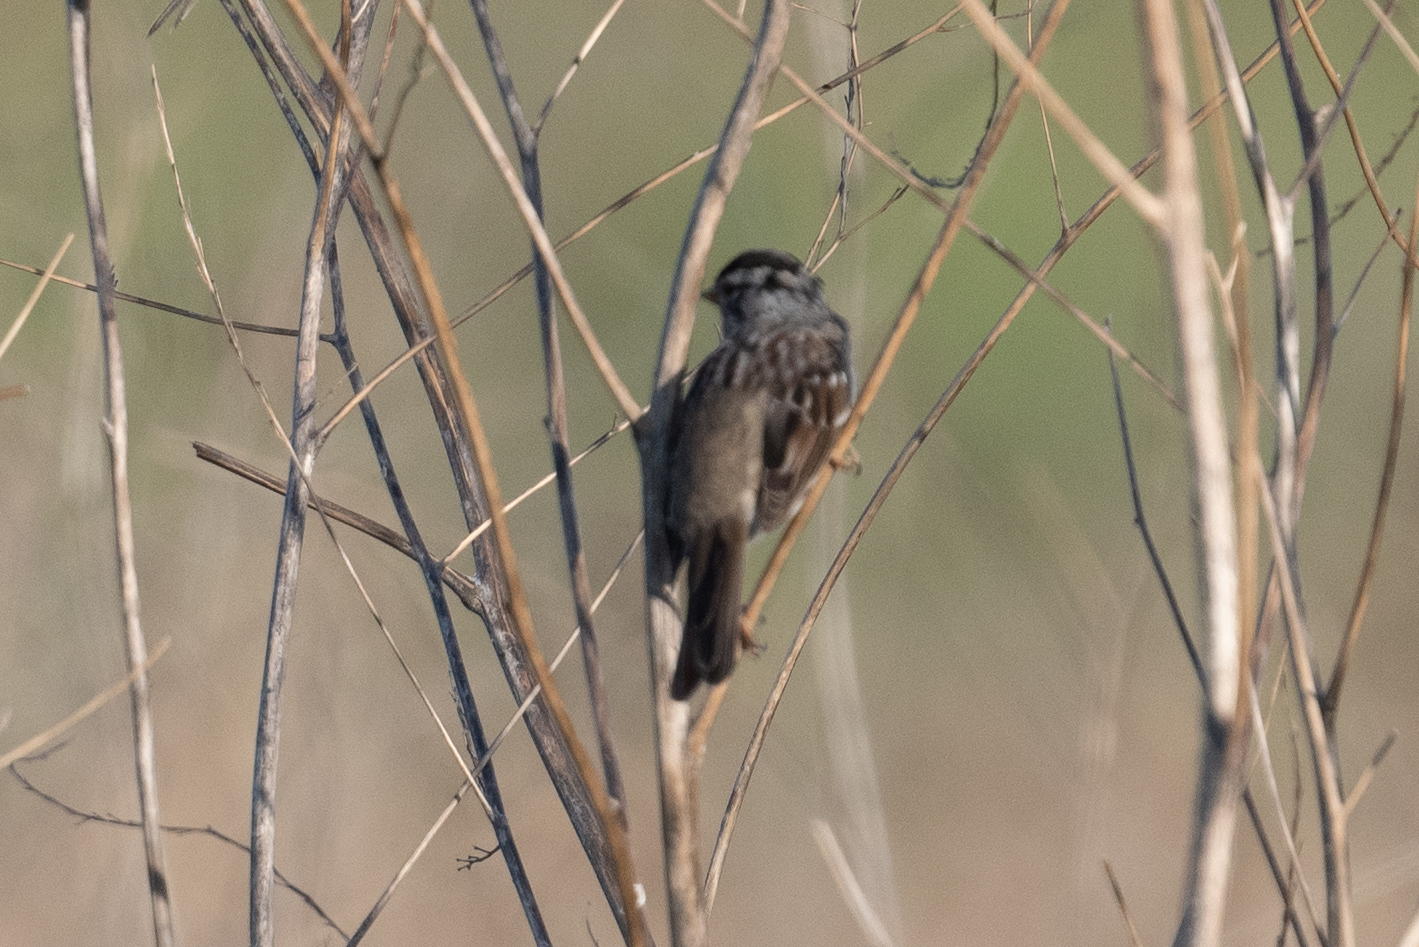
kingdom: Animalia
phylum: Chordata
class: Aves
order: Passeriformes
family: Passerellidae
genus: Zonotrichia
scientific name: Zonotrichia leucophrys
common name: White-crowned sparrow
